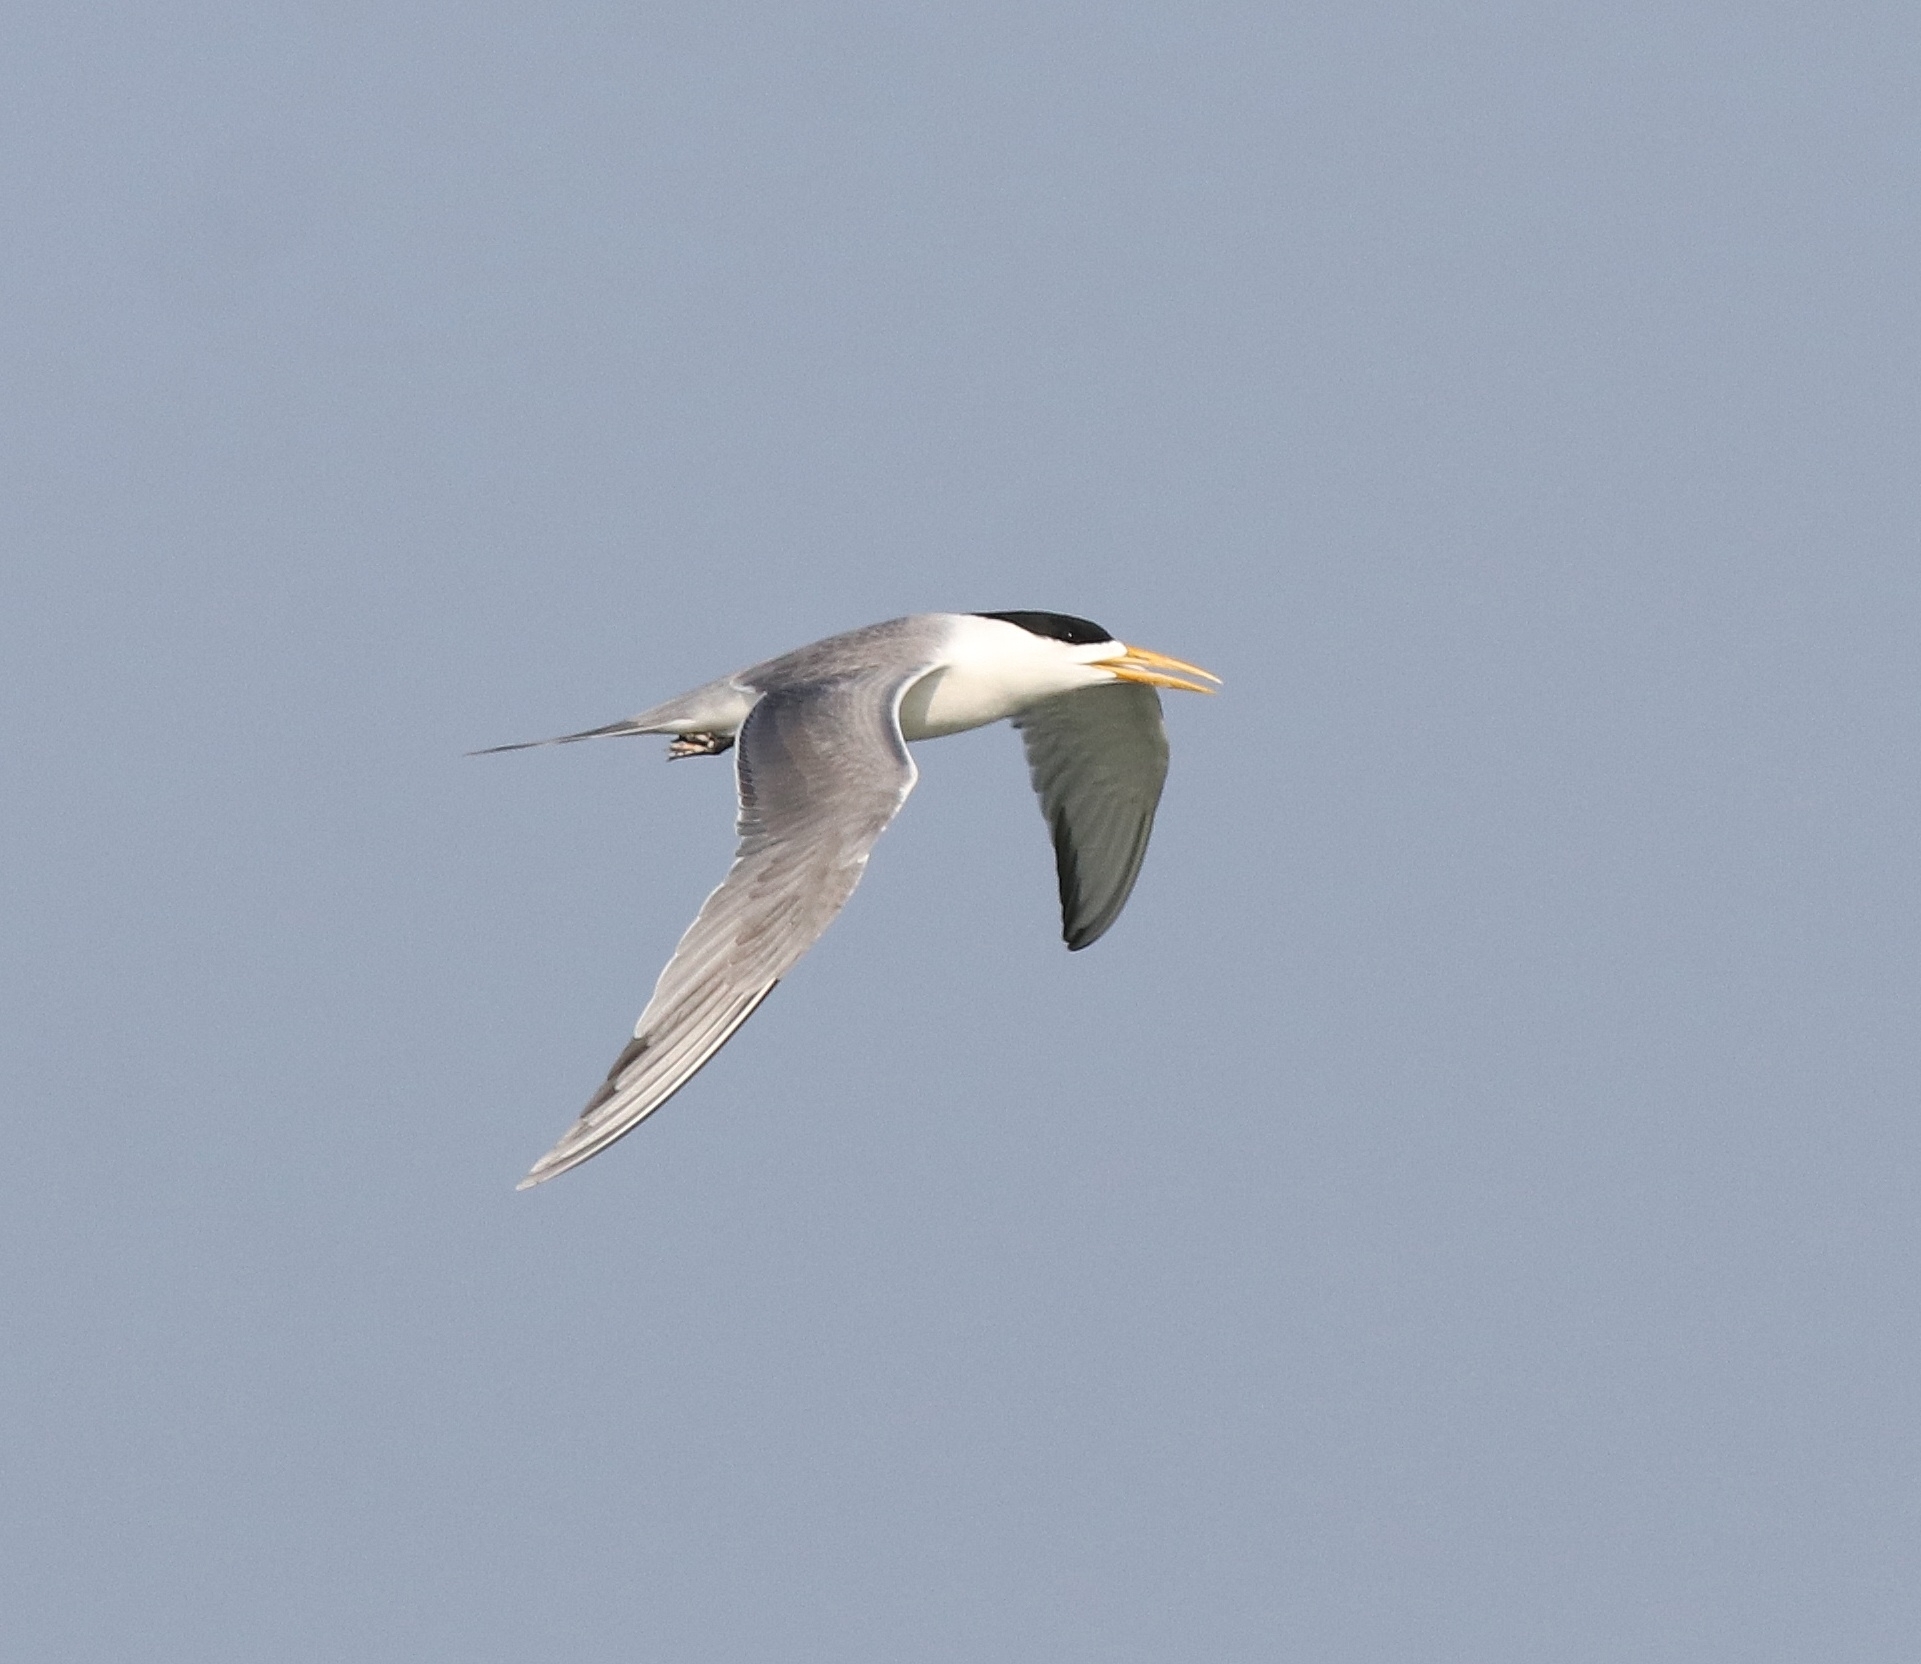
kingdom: Animalia
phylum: Chordata
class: Aves
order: Charadriiformes
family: Laridae
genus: Thalasseus
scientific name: Thalasseus bergii
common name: Greater crested tern
